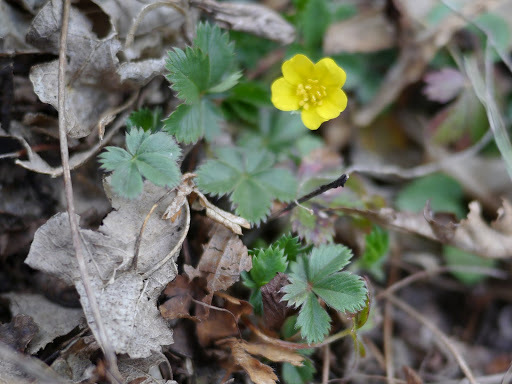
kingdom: Plantae
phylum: Tracheophyta
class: Magnoliopsida
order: Rosales
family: Rosaceae
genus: Potentilla
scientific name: Potentilla canadensis
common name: Canada cinquefoil
